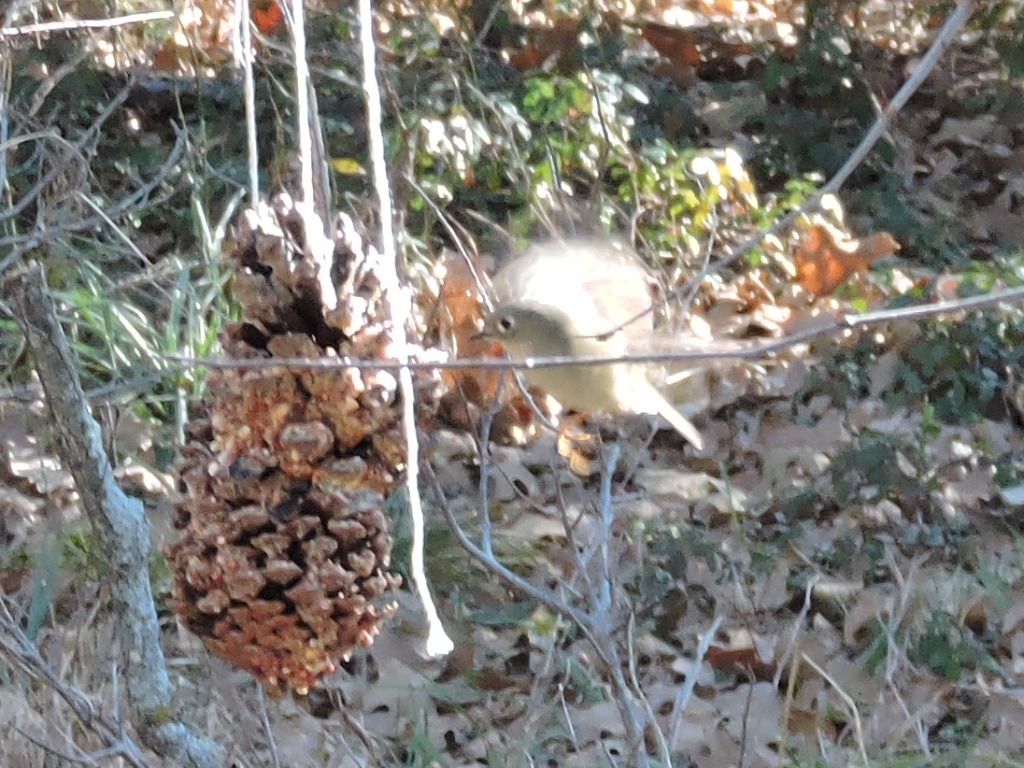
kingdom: Animalia
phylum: Chordata
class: Aves
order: Passeriformes
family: Regulidae
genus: Regulus
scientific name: Regulus calendula
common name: Ruby-crowned kinglet
